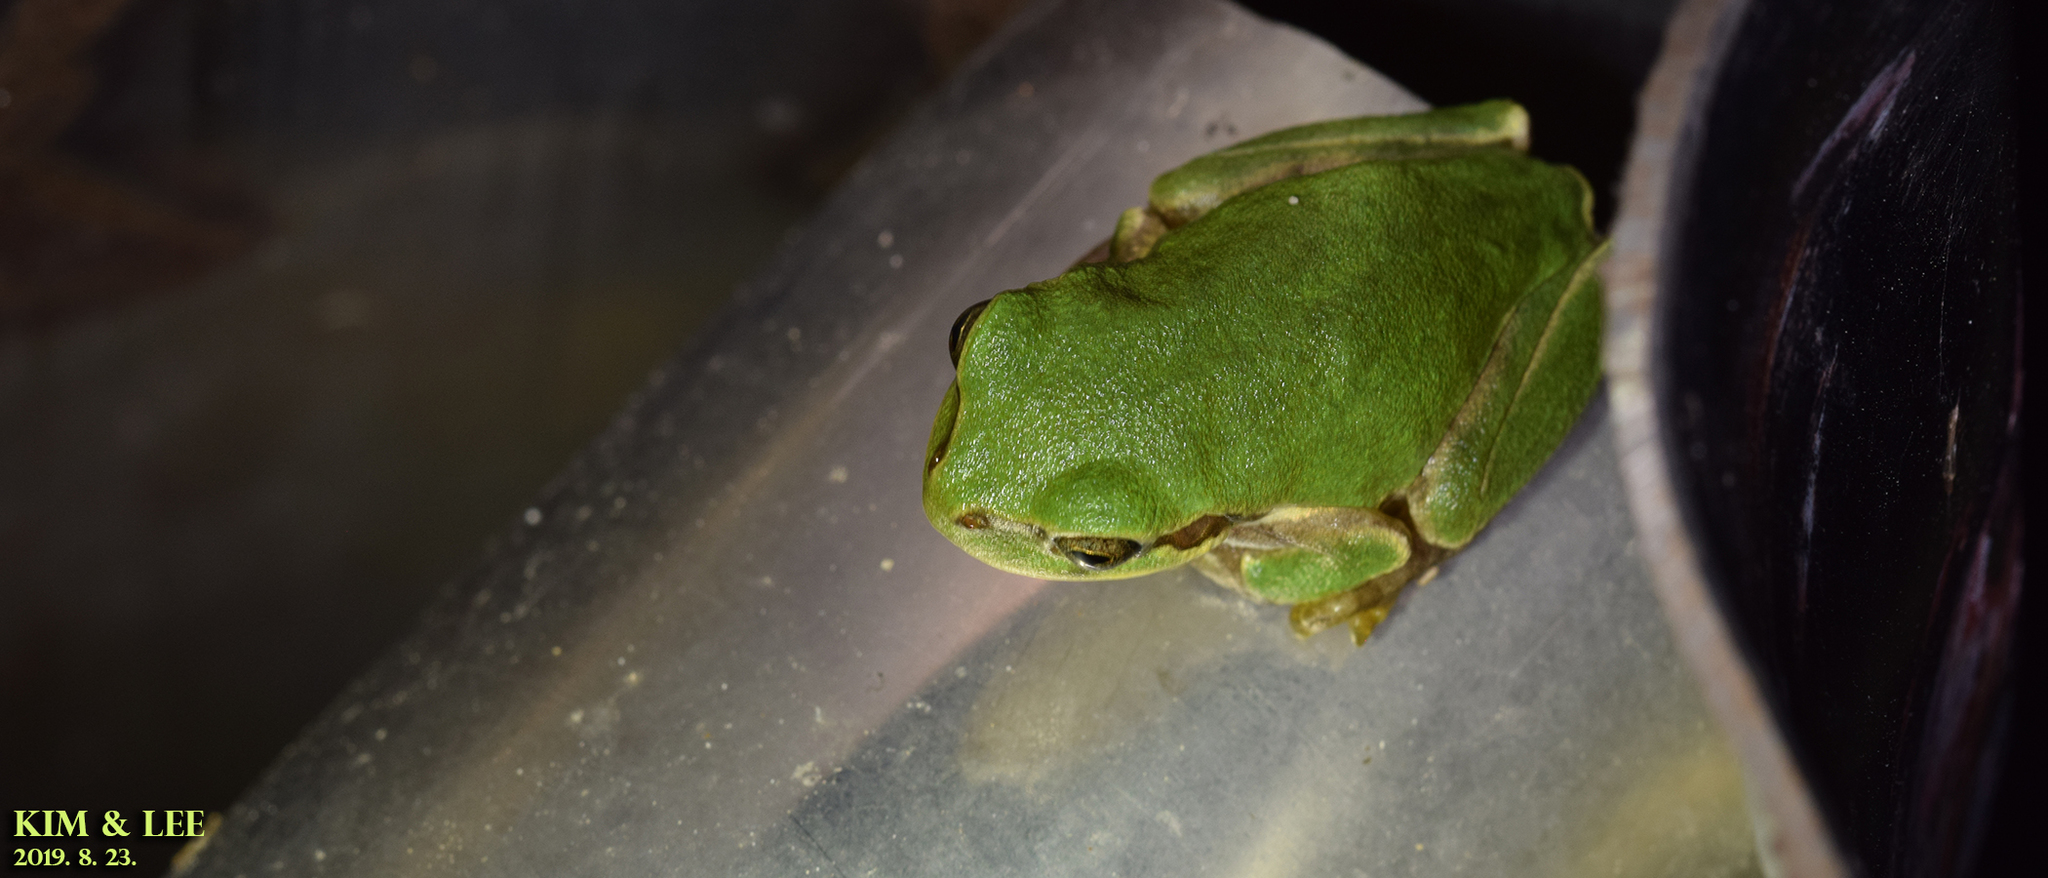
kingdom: Animalia
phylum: Chordata
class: Amphibia
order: Anura
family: Hylidae
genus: Dryophytes
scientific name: Dryophytes japonicus
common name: Japanese treefrog
